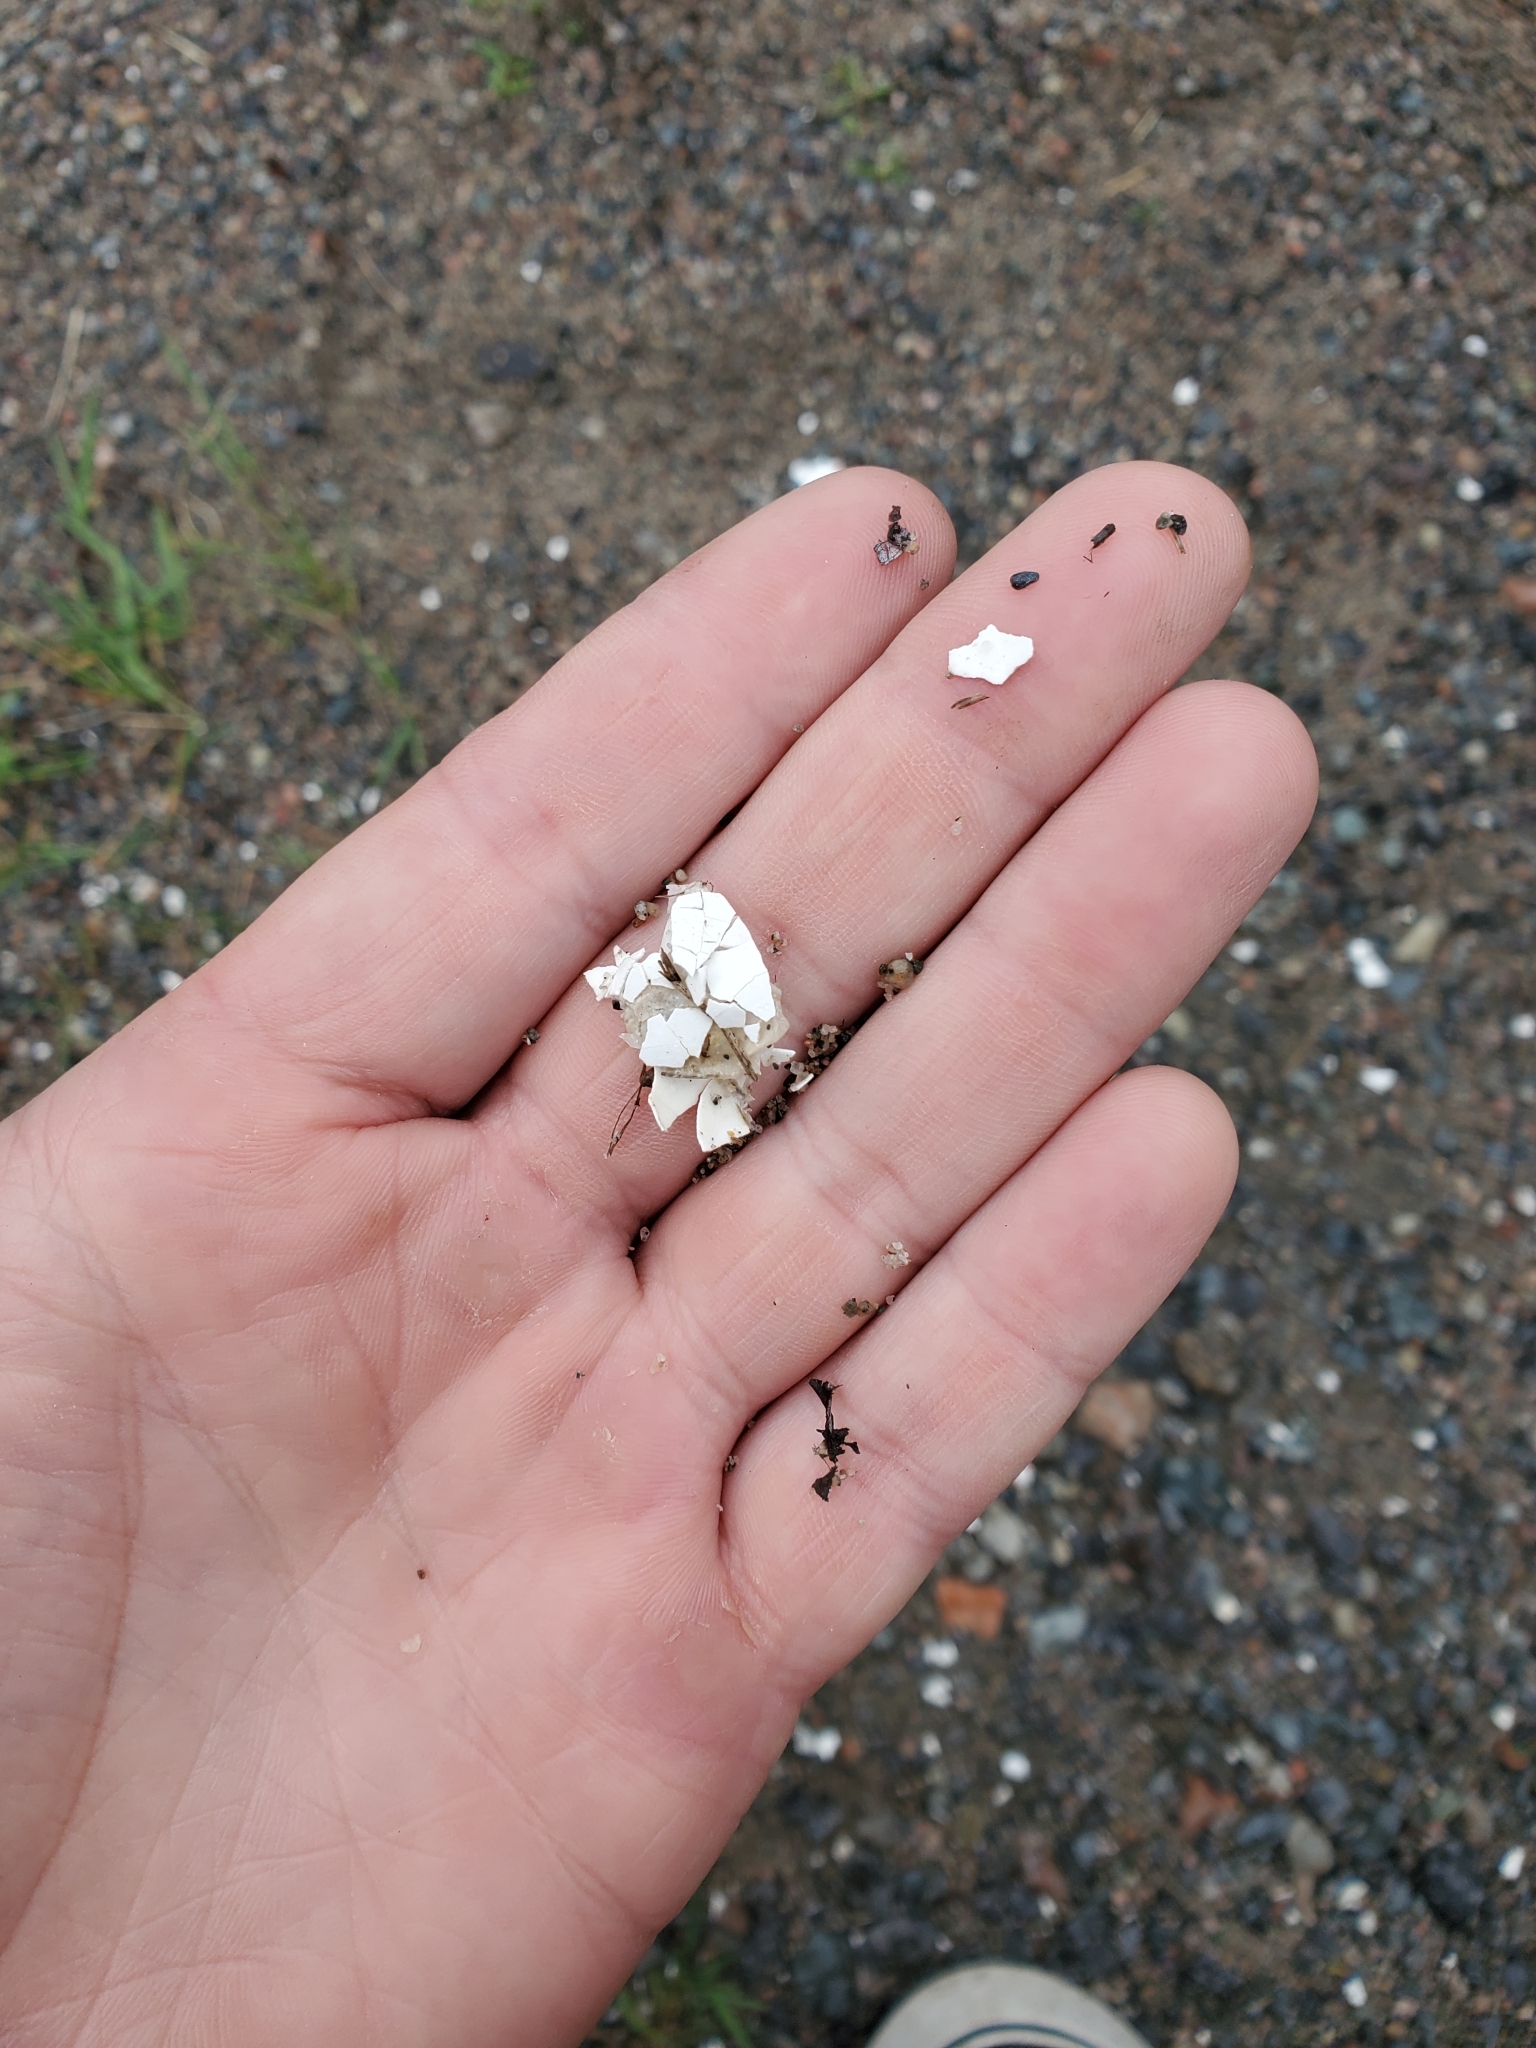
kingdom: Animalia
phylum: Chordata
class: Testudines
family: Emydidae
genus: Chrysemys
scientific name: Chrysemys picta
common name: Painted turtle
